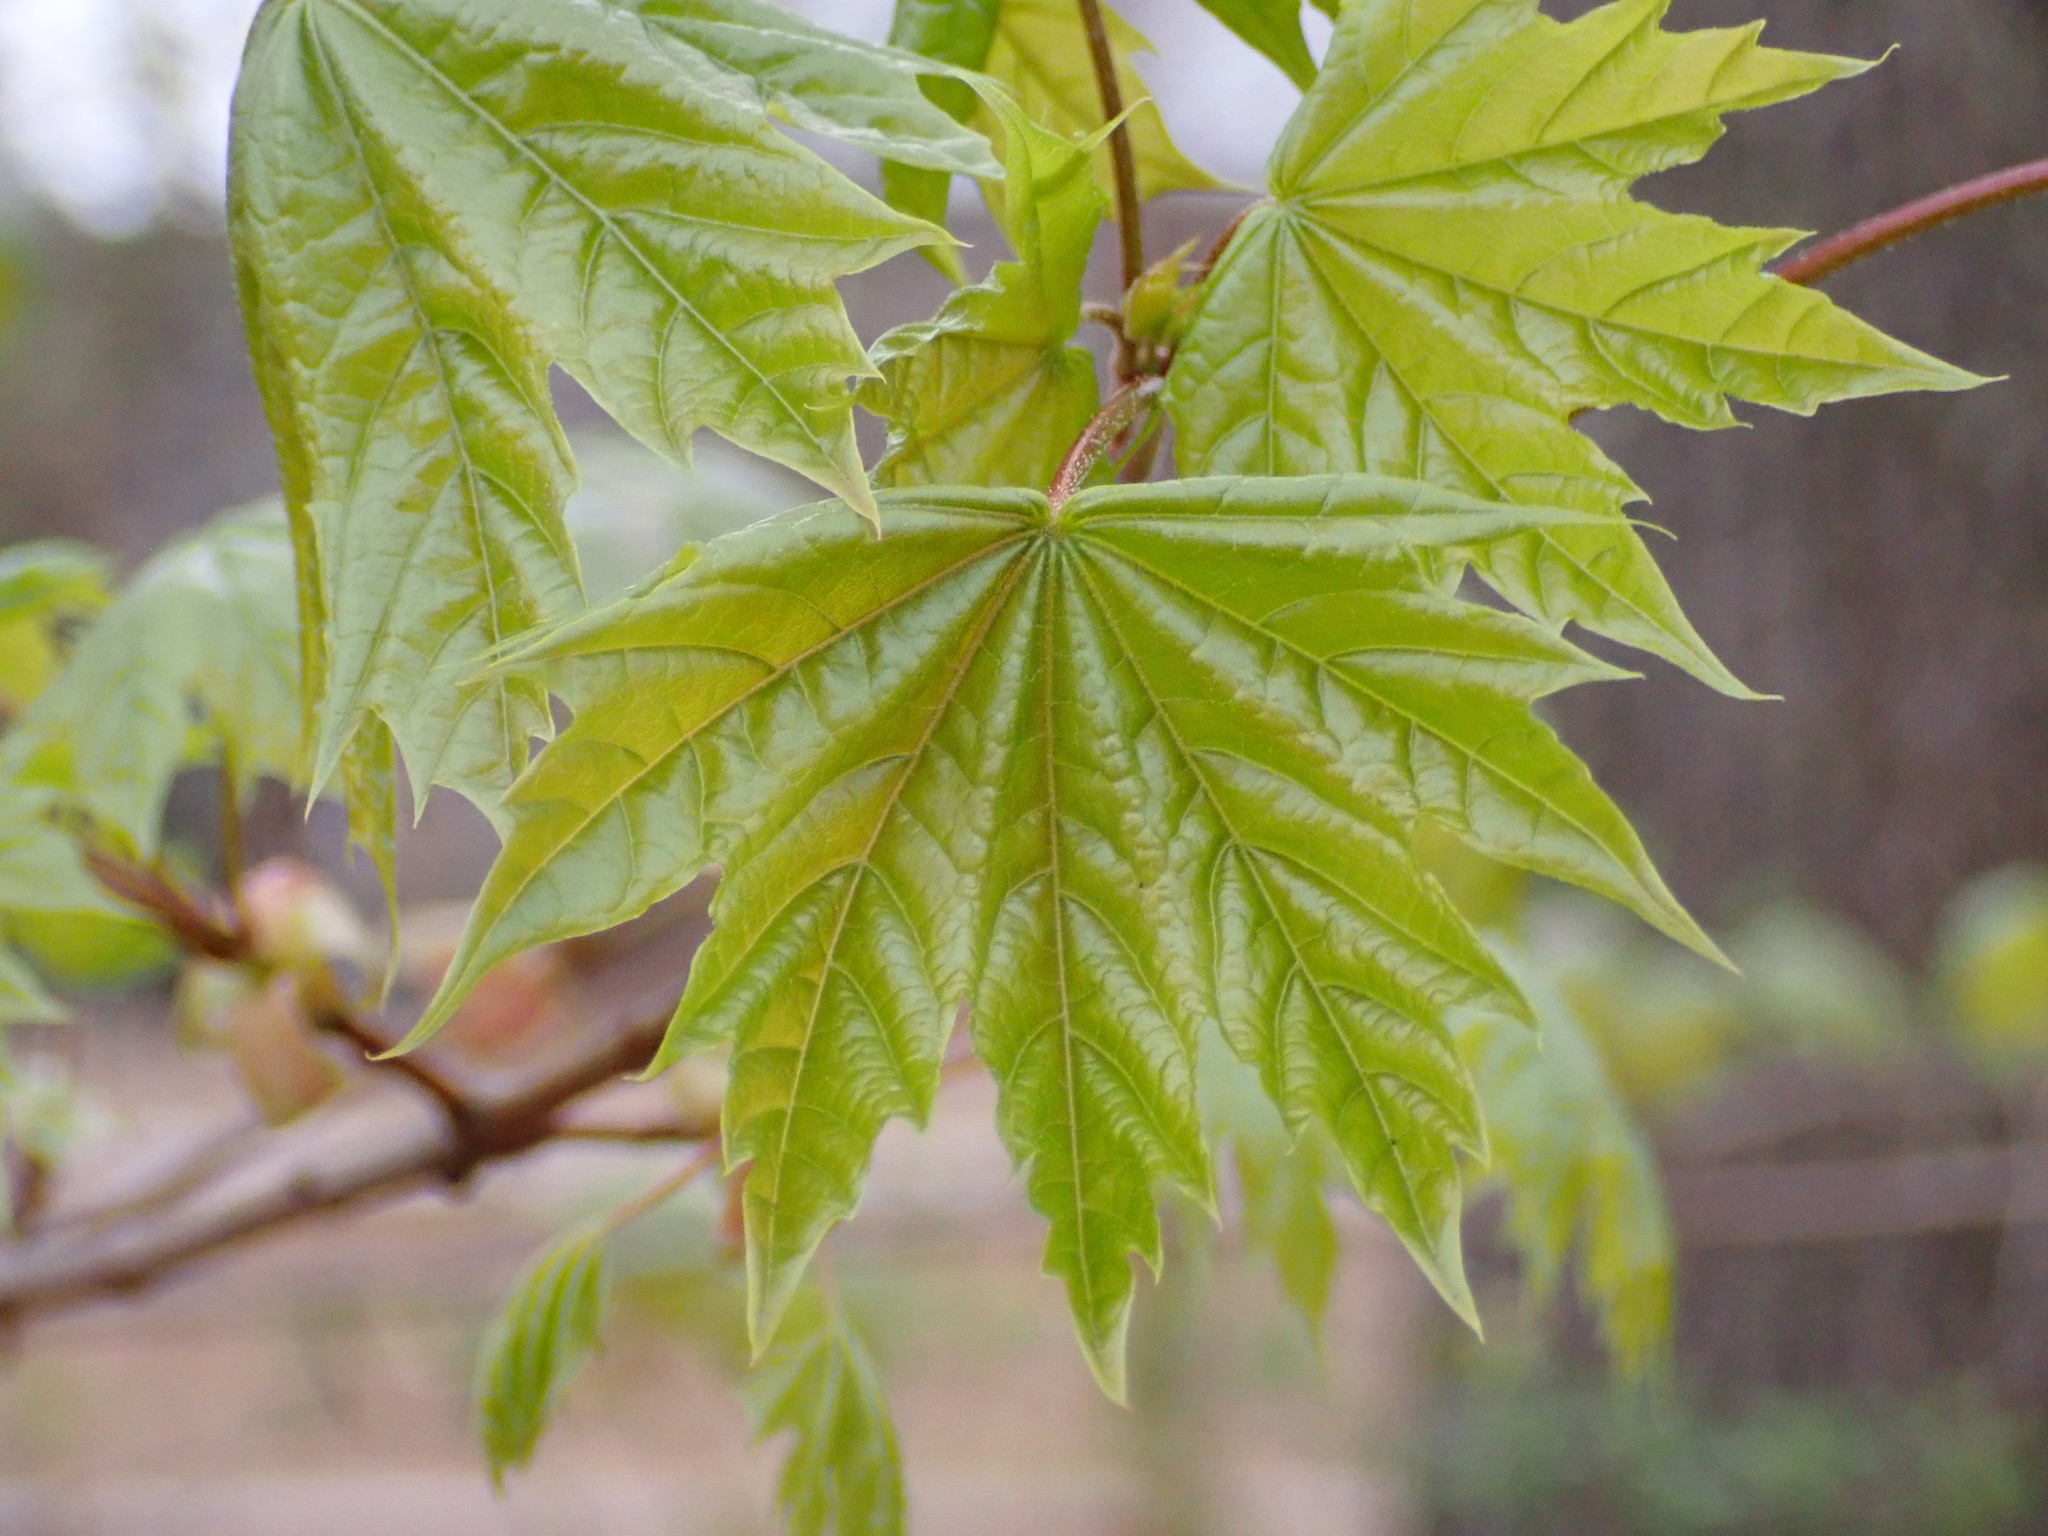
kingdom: Plantae
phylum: Tracheophyta
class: Magnoliopsida
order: Sapindales
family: Sapindaceae
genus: Acer
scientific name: Acer platanoides
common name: Norway maple
